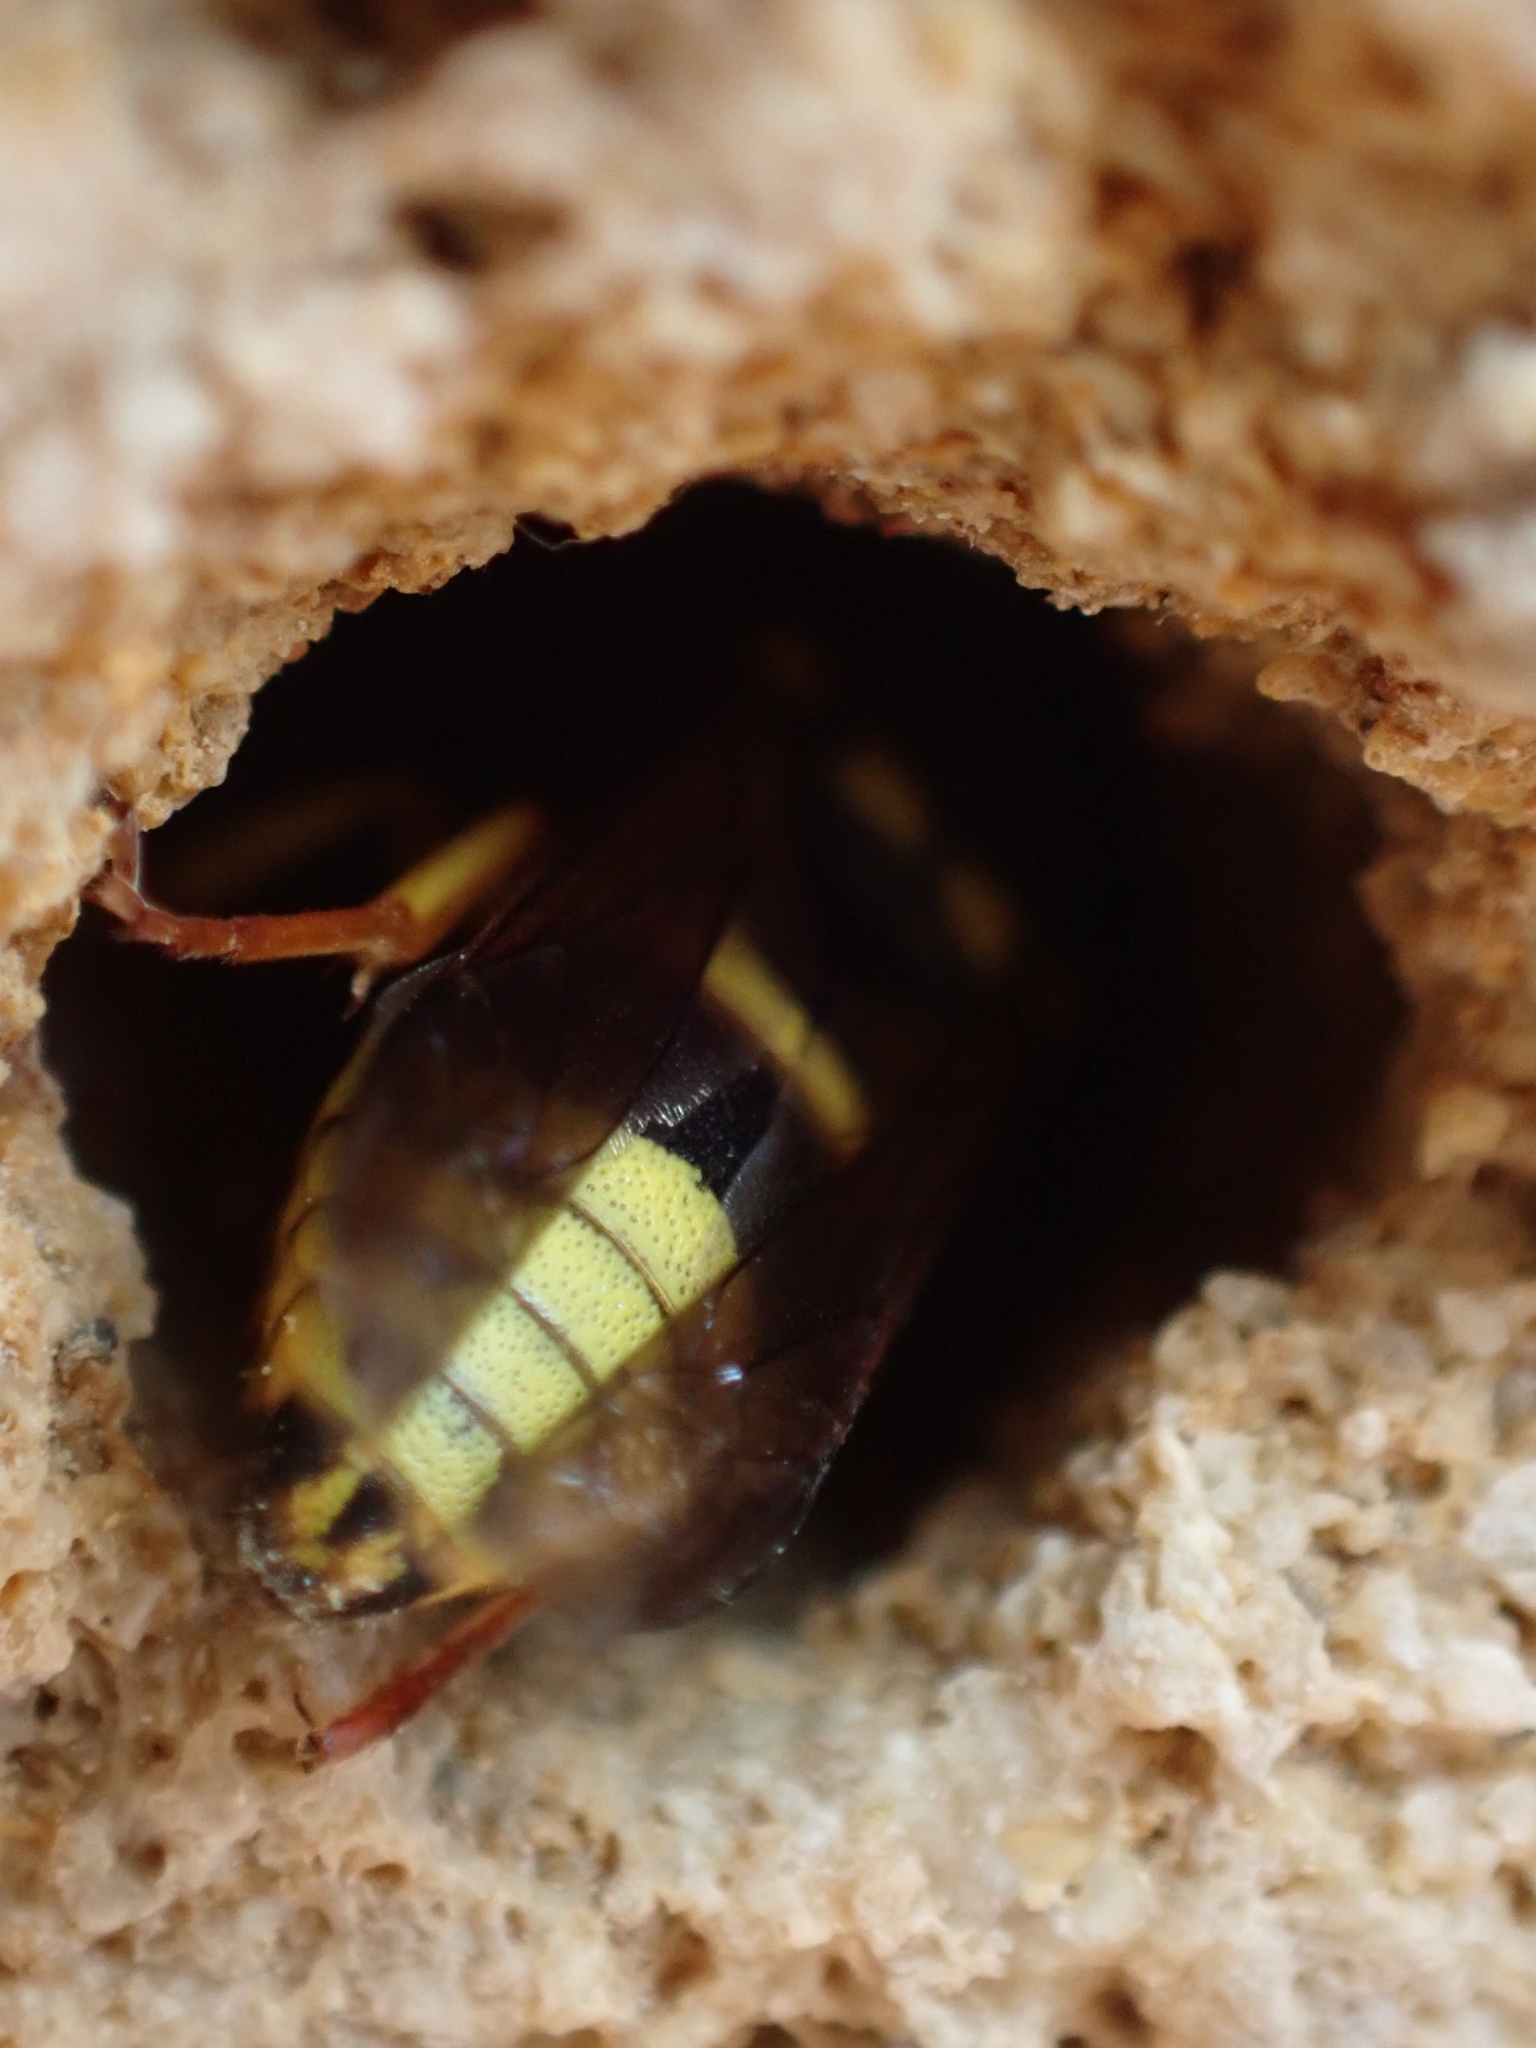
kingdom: Animalia
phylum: Arthropoda
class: Insecta
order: Hymenoptera
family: Eumenidae
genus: Euodynerus
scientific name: Euodynerus
